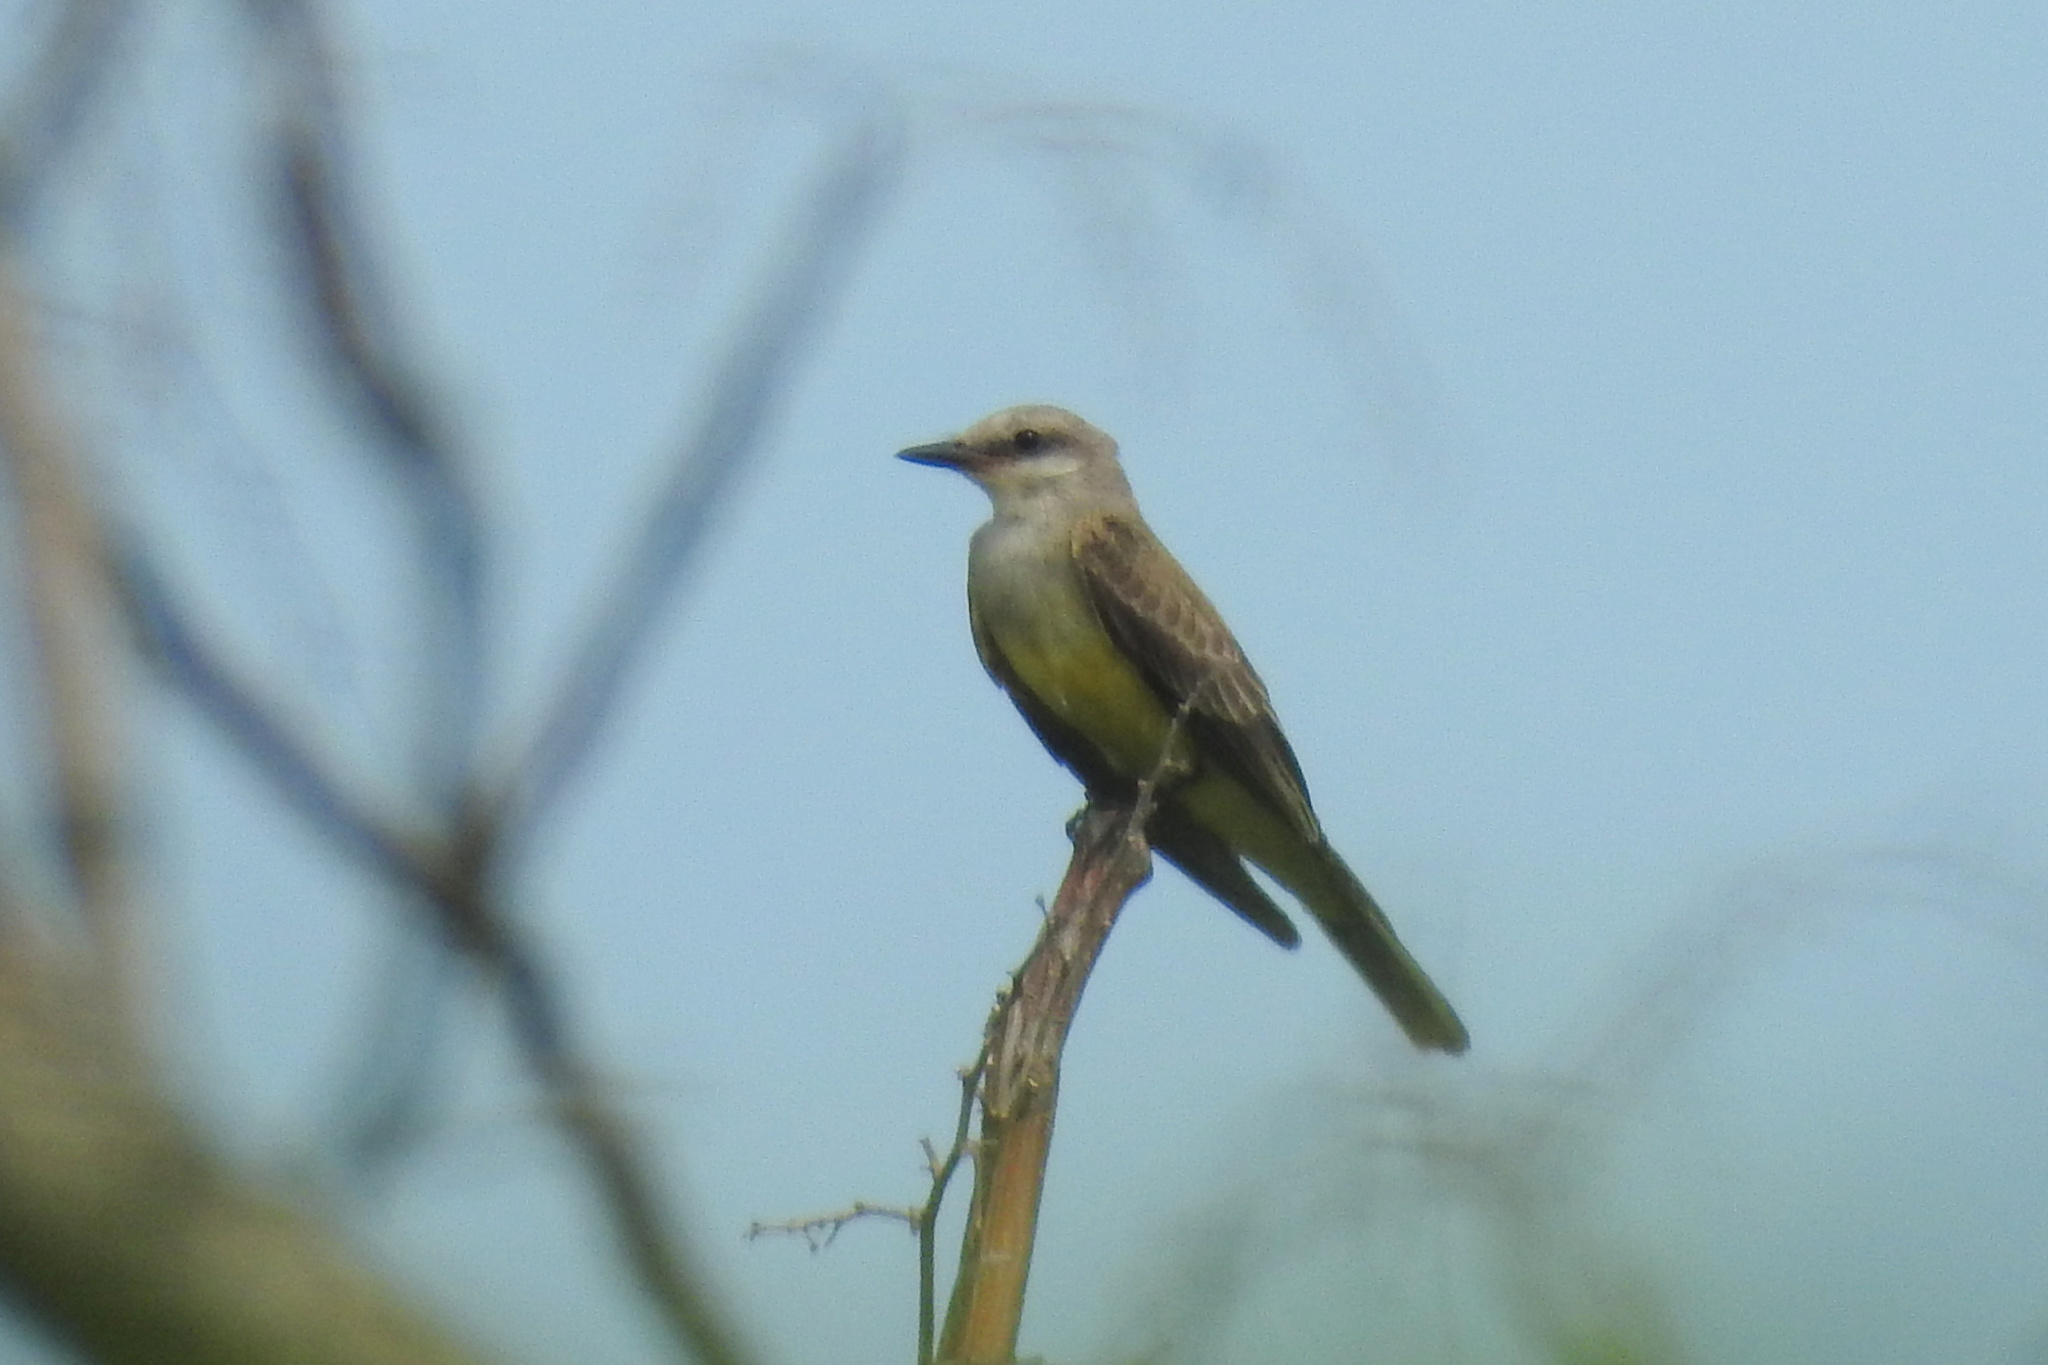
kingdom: Animalia
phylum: Chordata
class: Aves
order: Passeriformes
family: Tyrannidae
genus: Tyrannus
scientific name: Tyrannus verticalis
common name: Western kingbird
